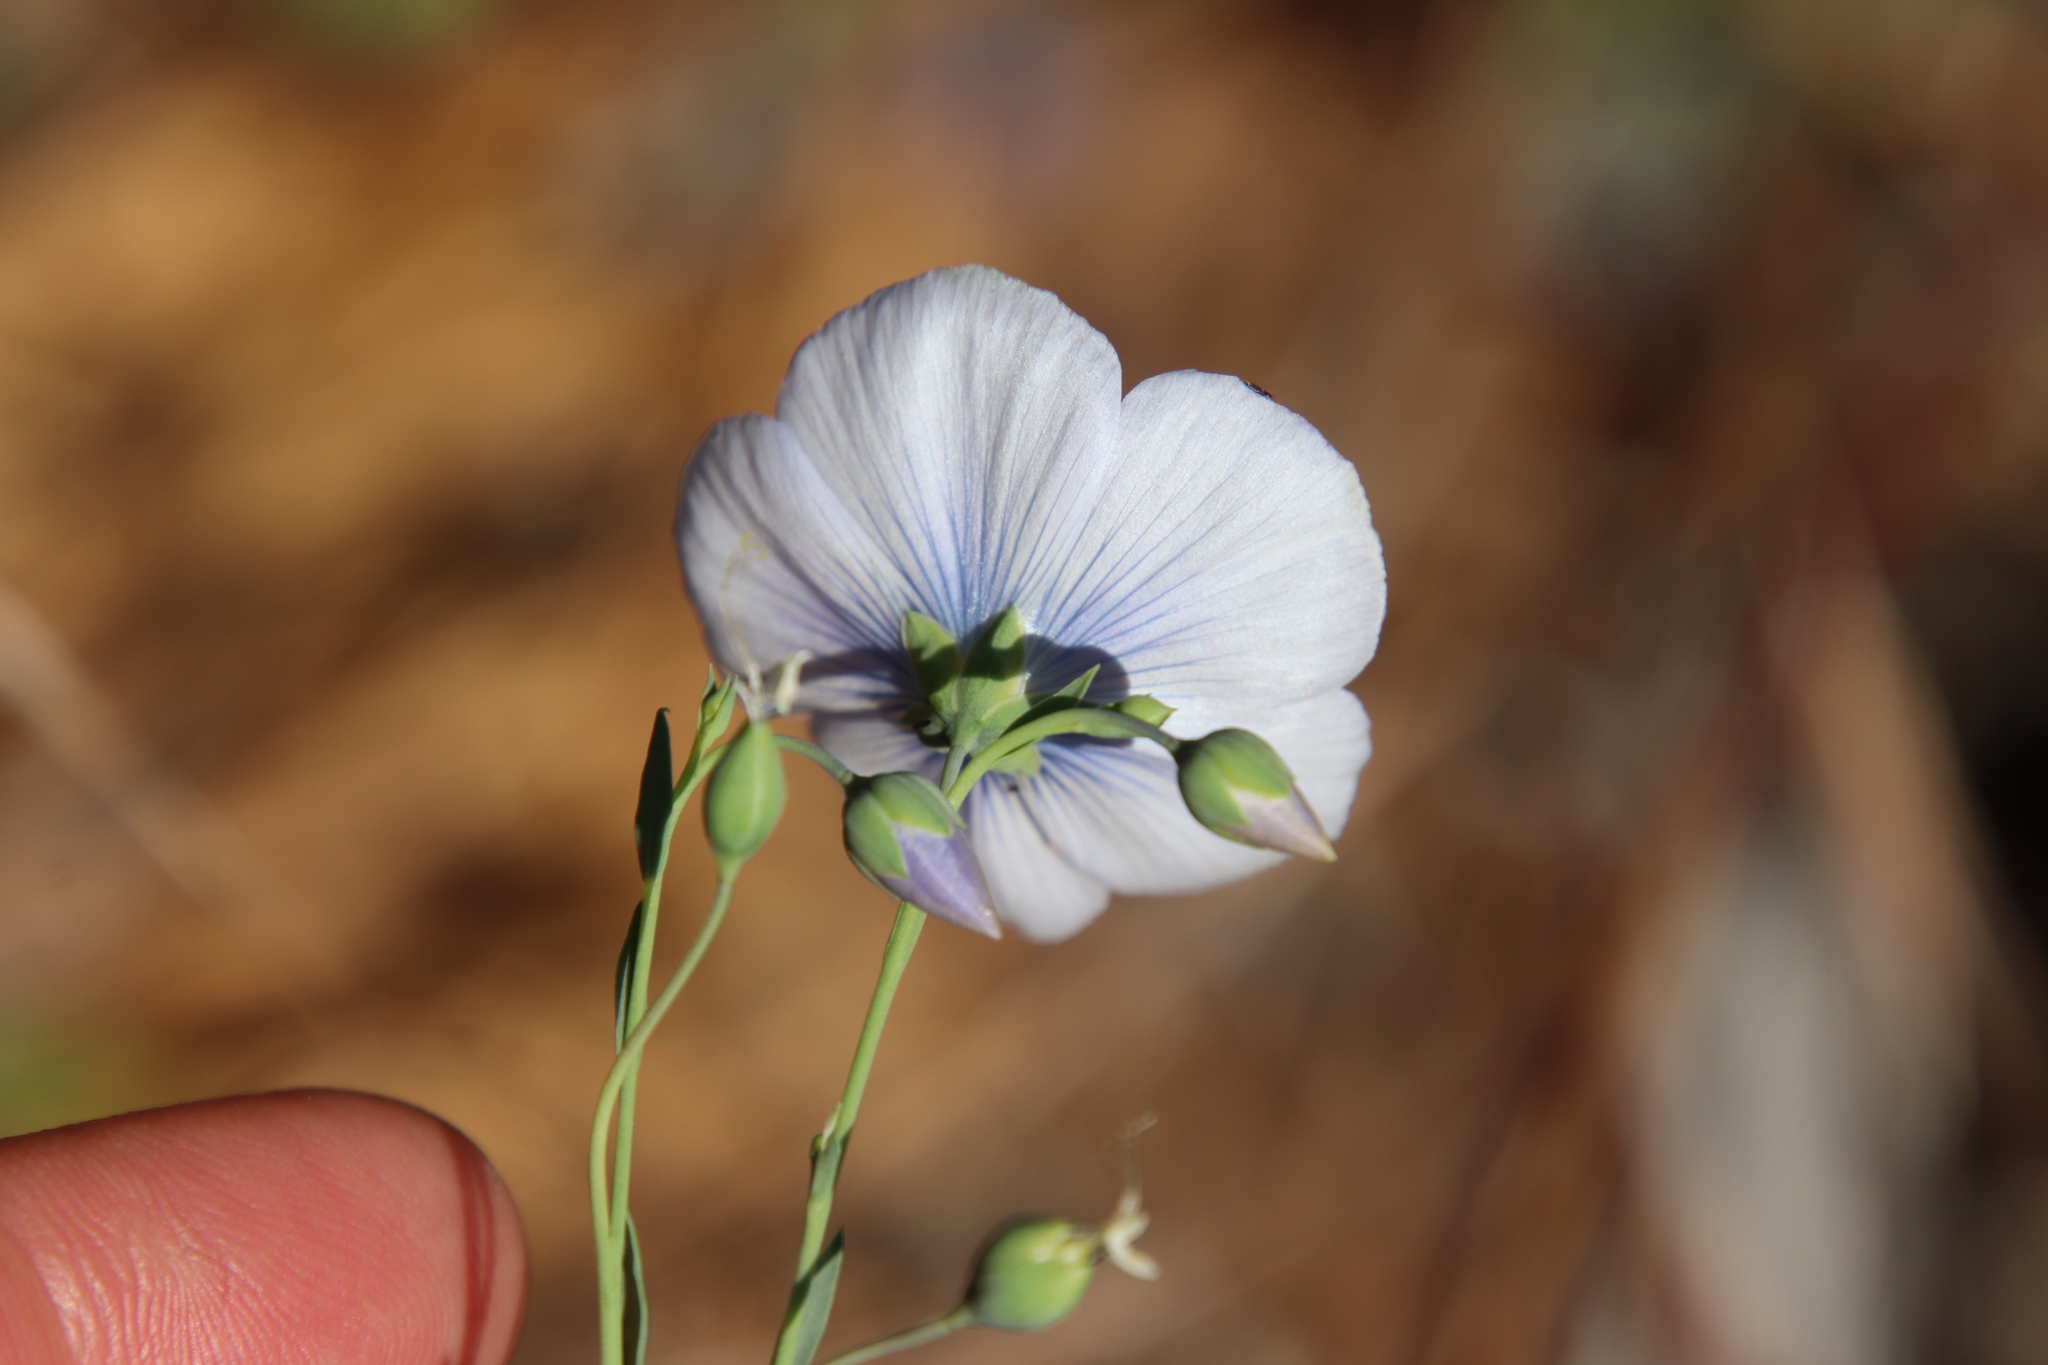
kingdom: Plantae
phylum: Tracheophyta
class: Magnoliopsida
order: Malpighiales
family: Linaceae
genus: Linum
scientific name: Linum lewisii
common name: Prairie flax
